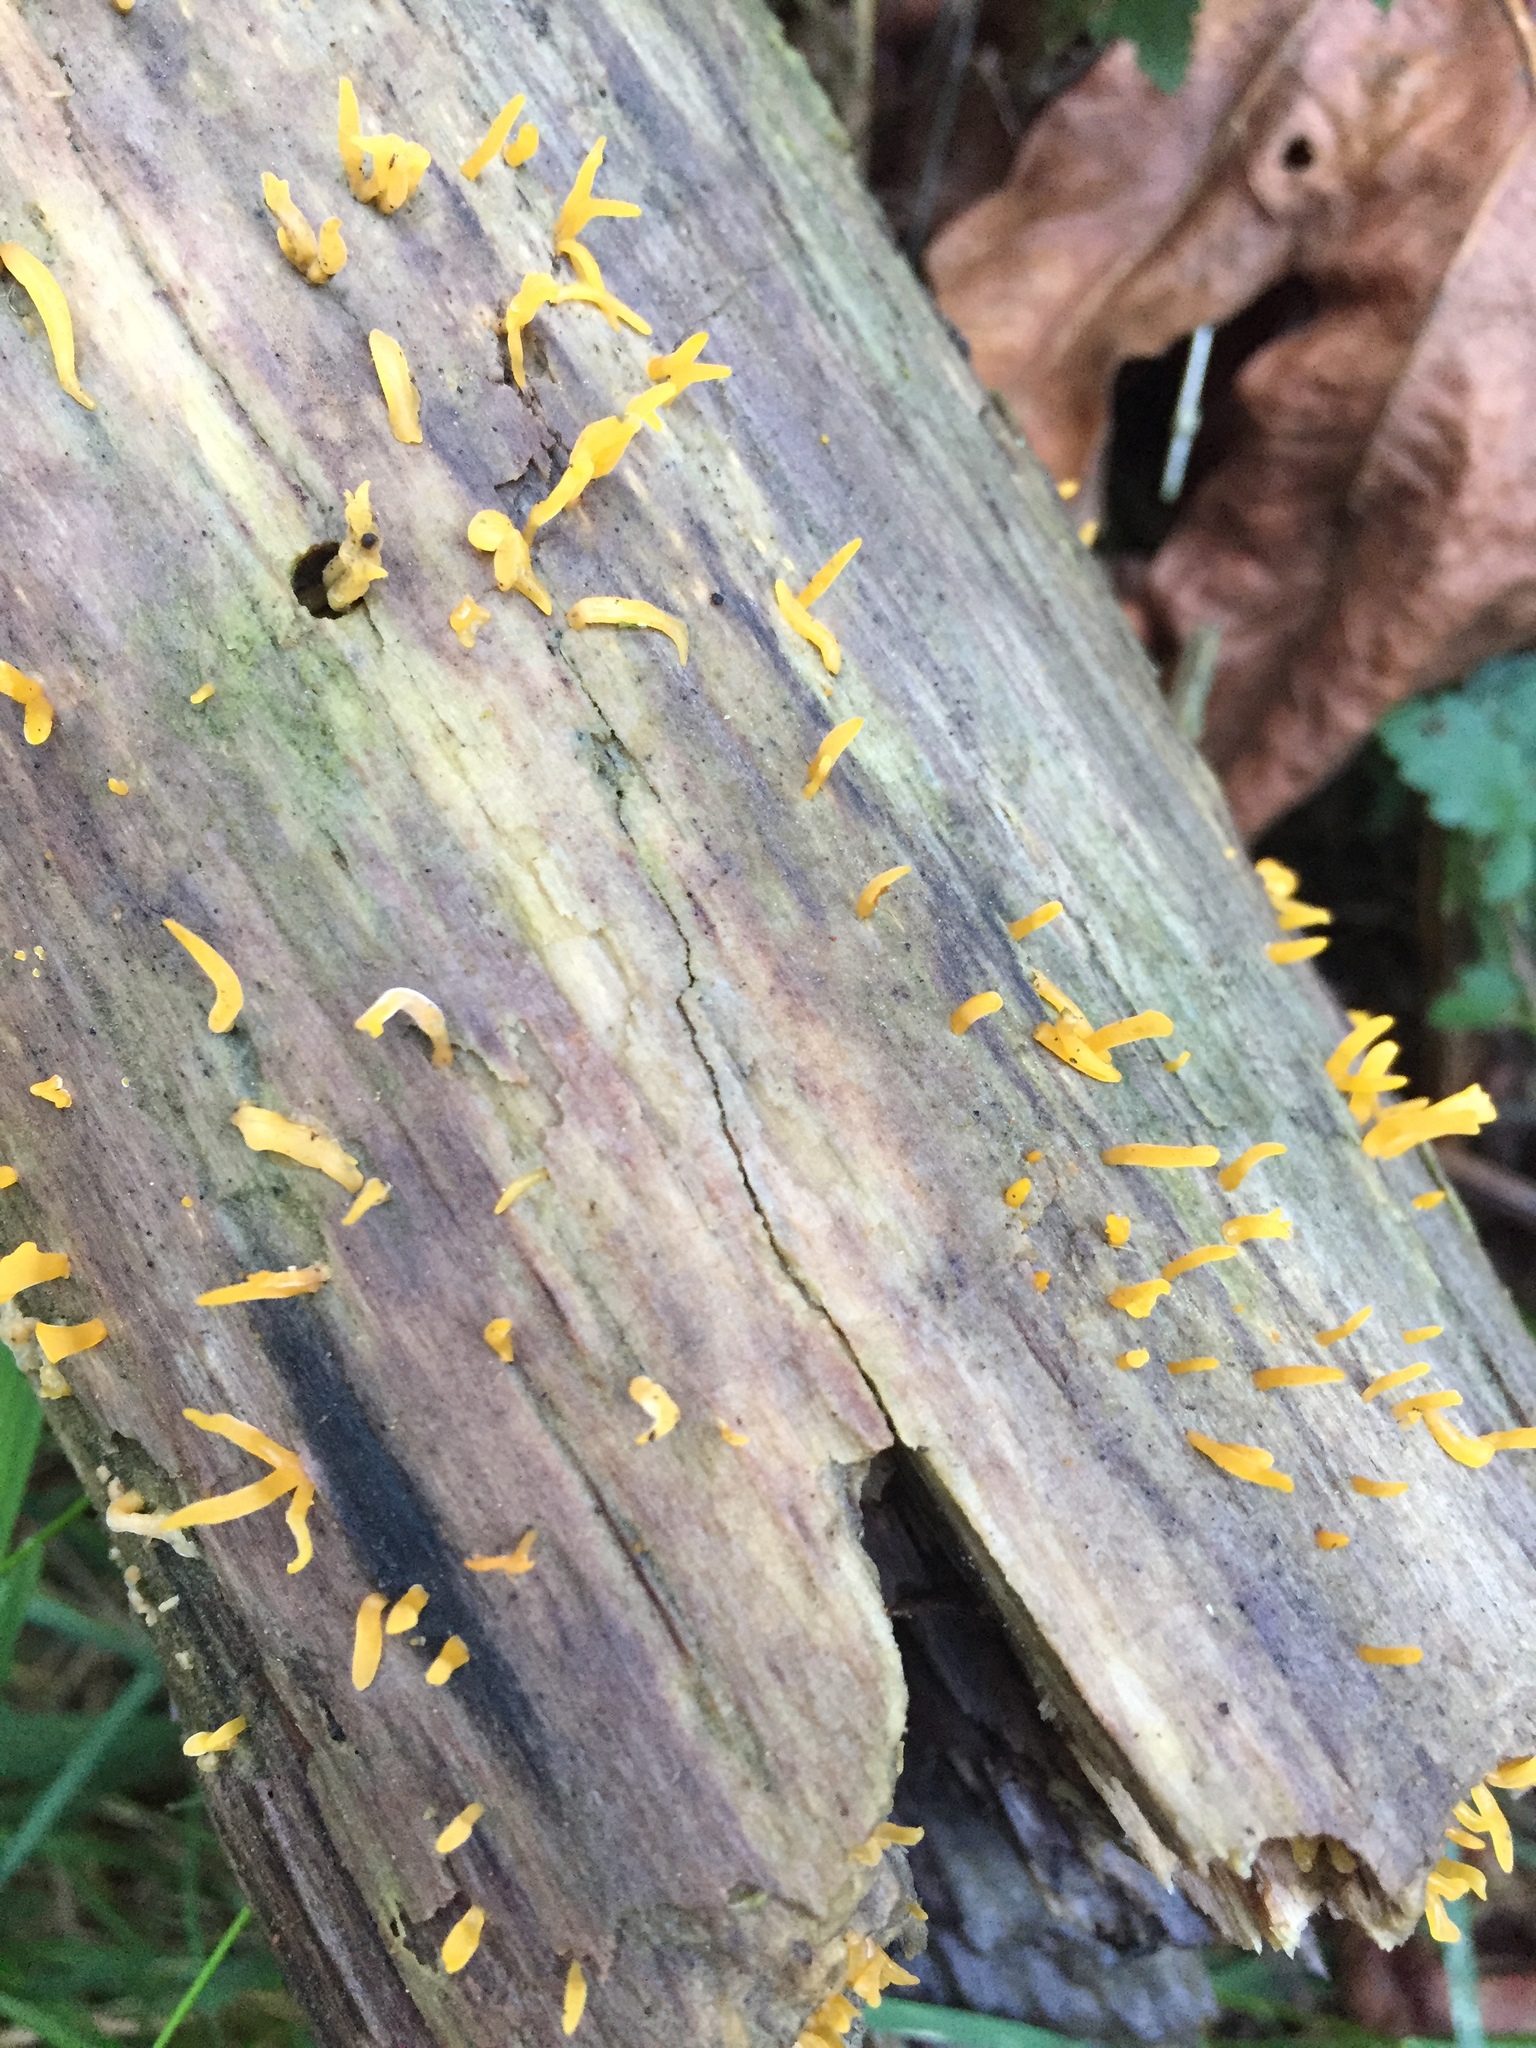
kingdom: Fungi
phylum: Basidiomycota
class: Dacrymycetes
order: Dacrymycetales
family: Dacrymycetaceae
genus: Calocera
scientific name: Calocera cornea
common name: Small stagshorn
